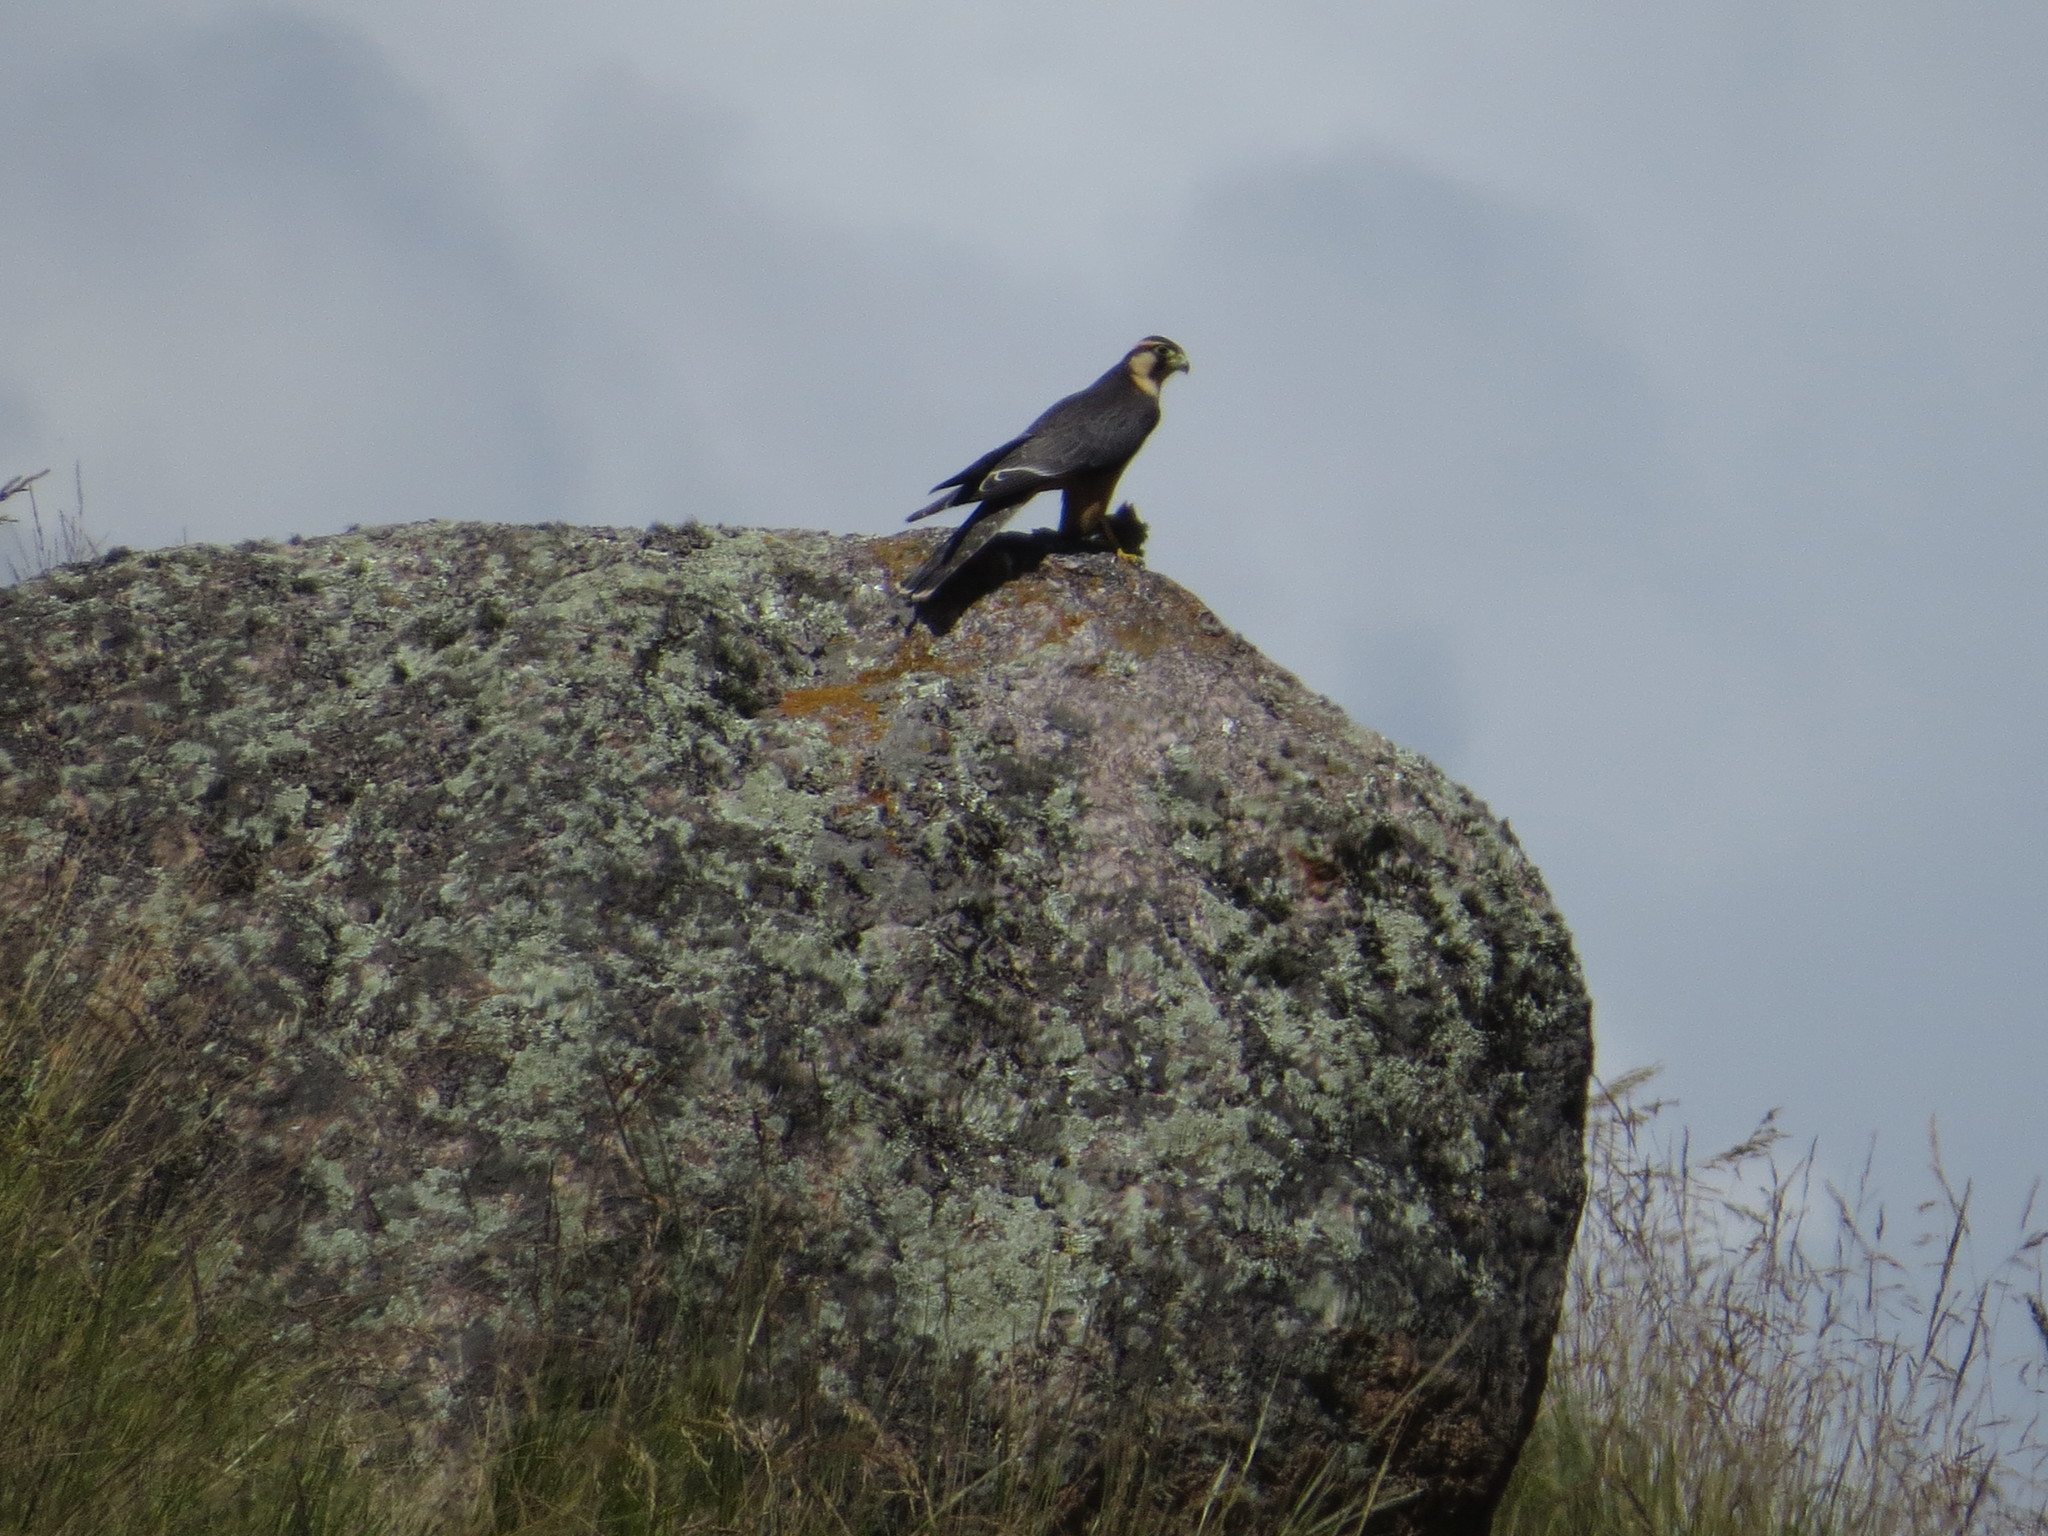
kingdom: Animalia
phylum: Chordata
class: Aves
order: Falconiformes
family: Falconidae
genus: Falco
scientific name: Falco femoralis
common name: Aplomado falcon
